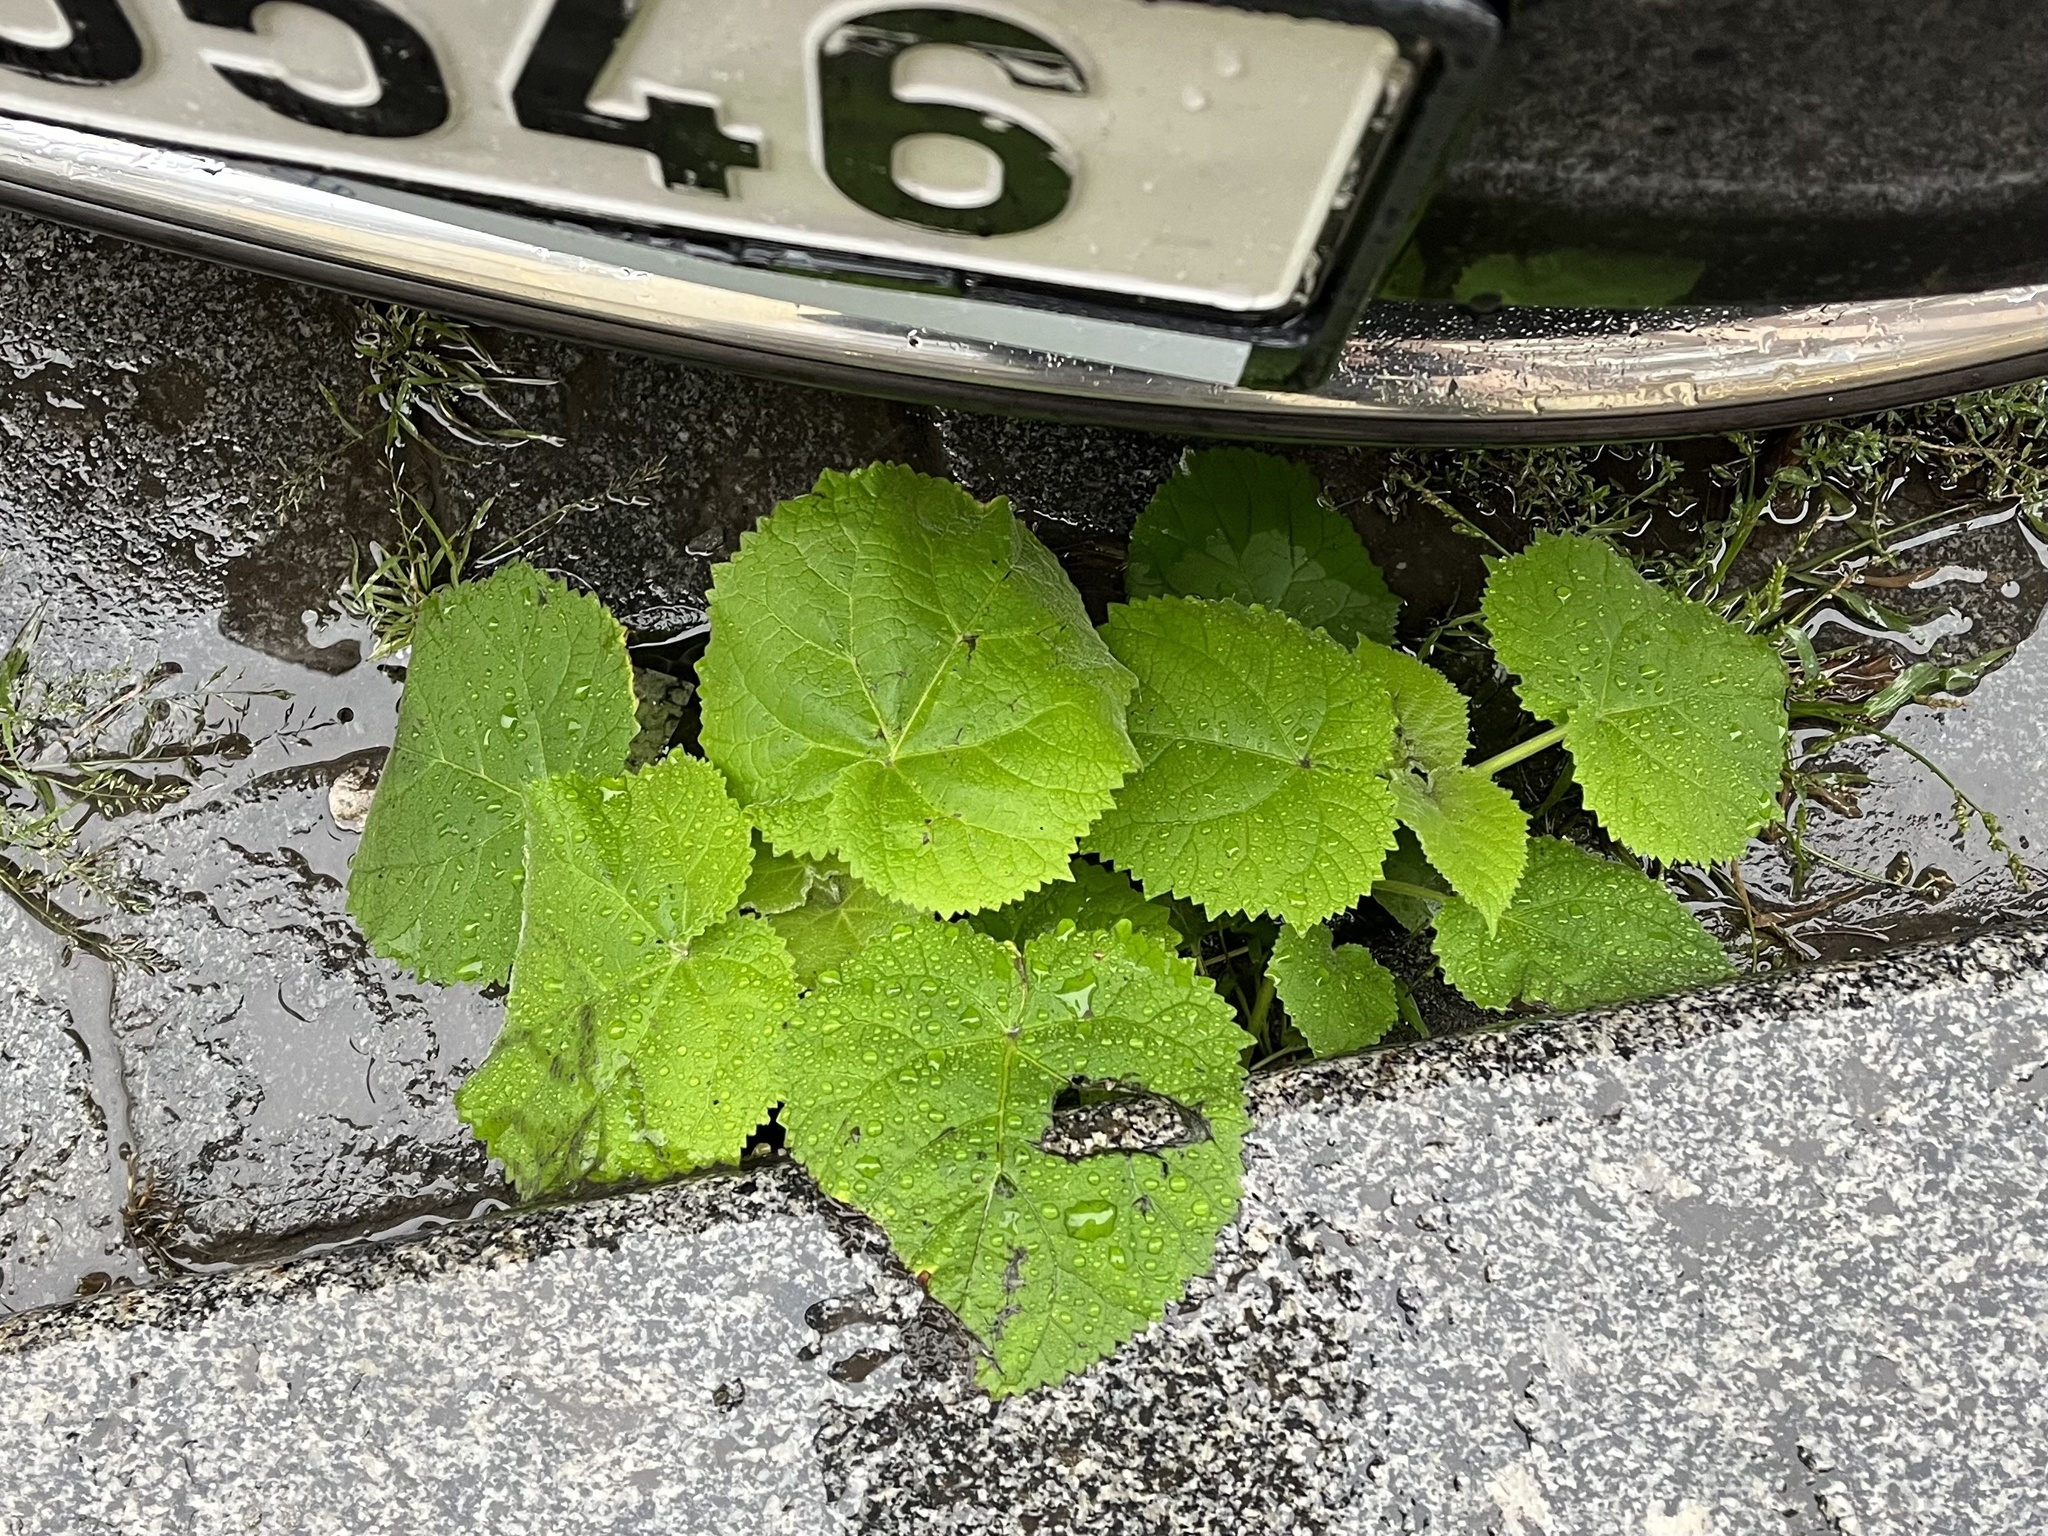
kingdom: Plantae
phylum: Tracheophyta
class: Magnoliopsida
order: Lamiales
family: Paulowniaceae
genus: Paulownia
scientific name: Paulownia tomentosa
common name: Foxglove-tree
